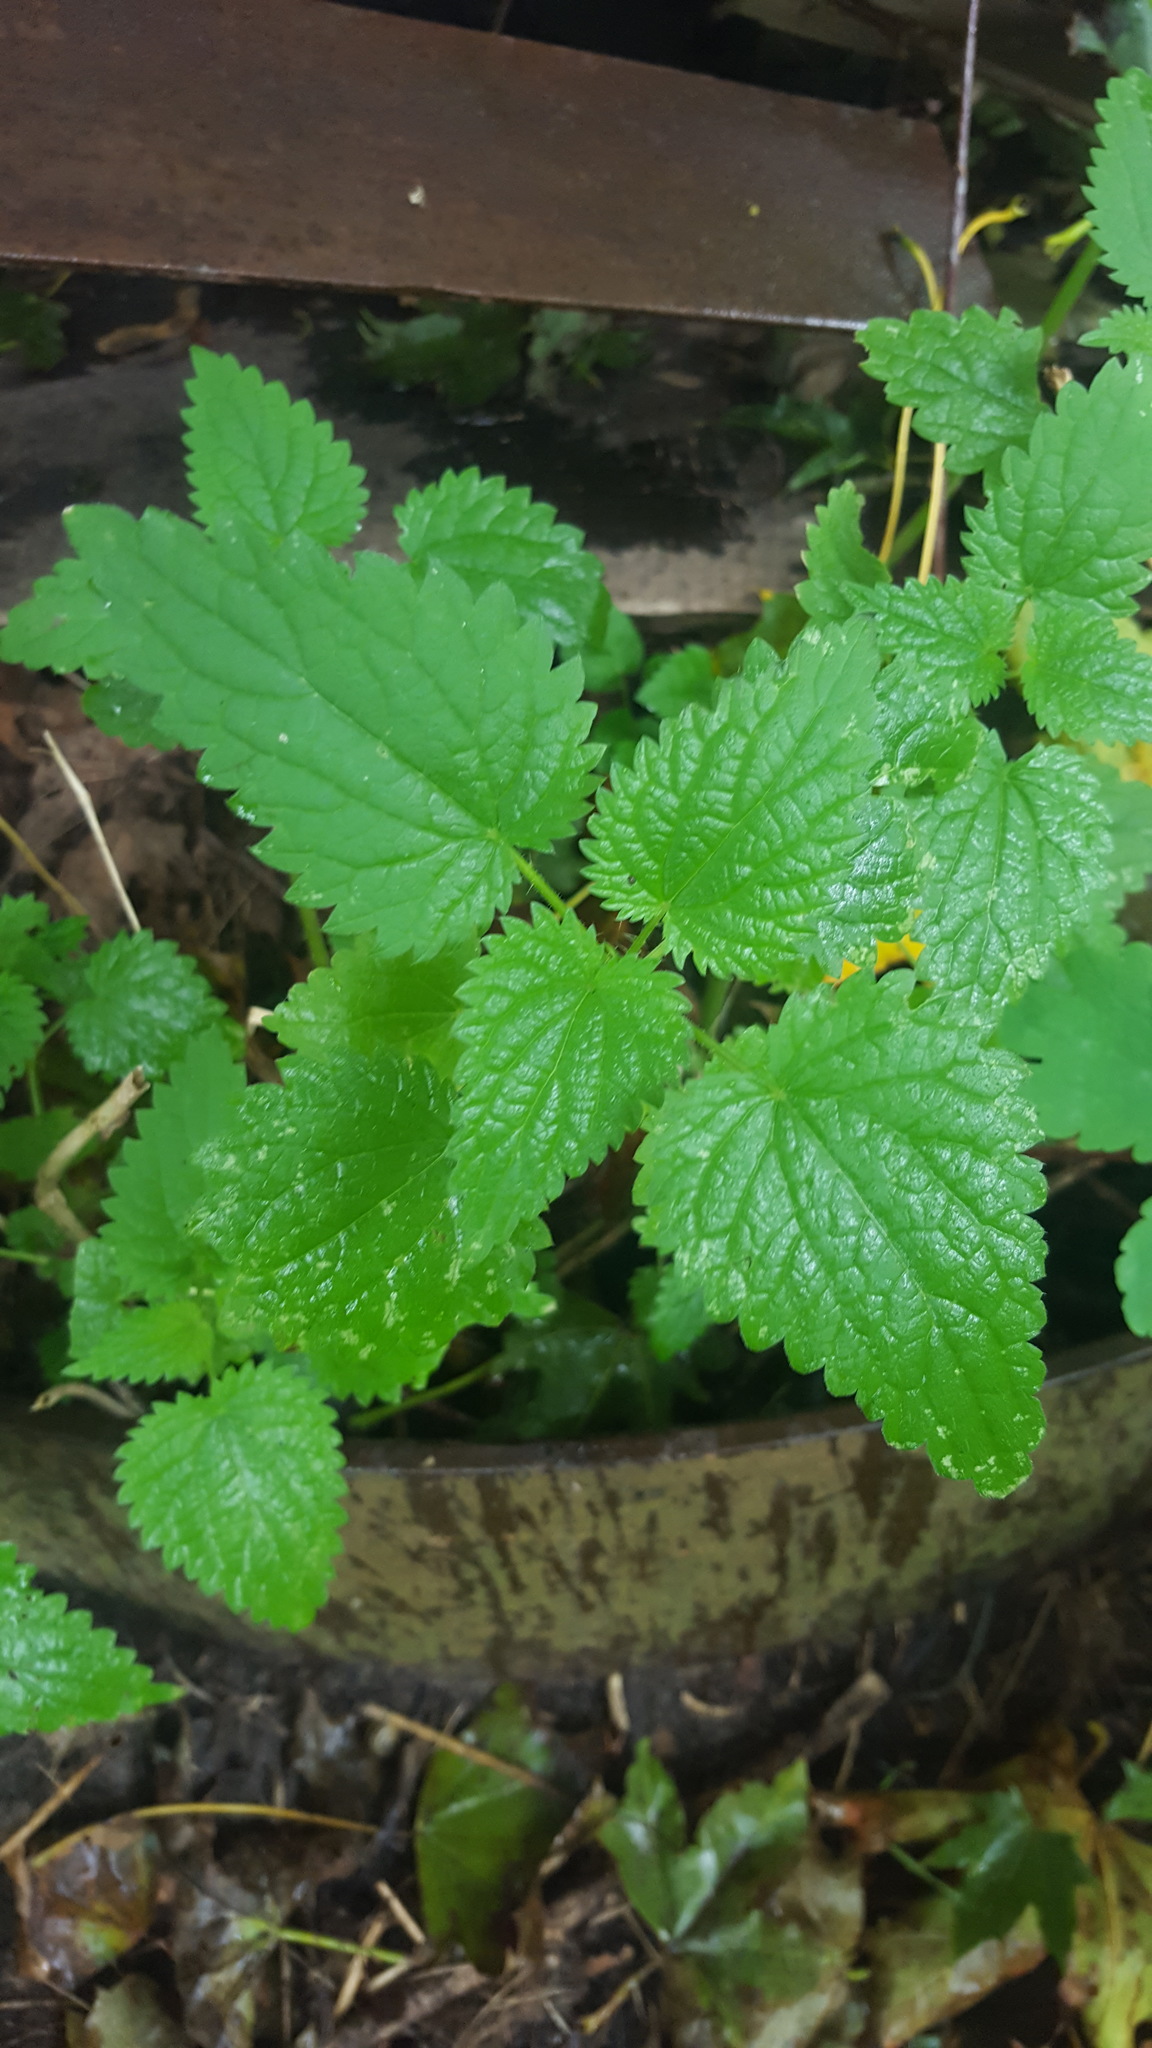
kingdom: Plantae
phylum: Tracheophyta
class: Magnoliopsida
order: Rosales
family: Urticaceae
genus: Urtica
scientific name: Urtica dioica
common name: Common nettle
